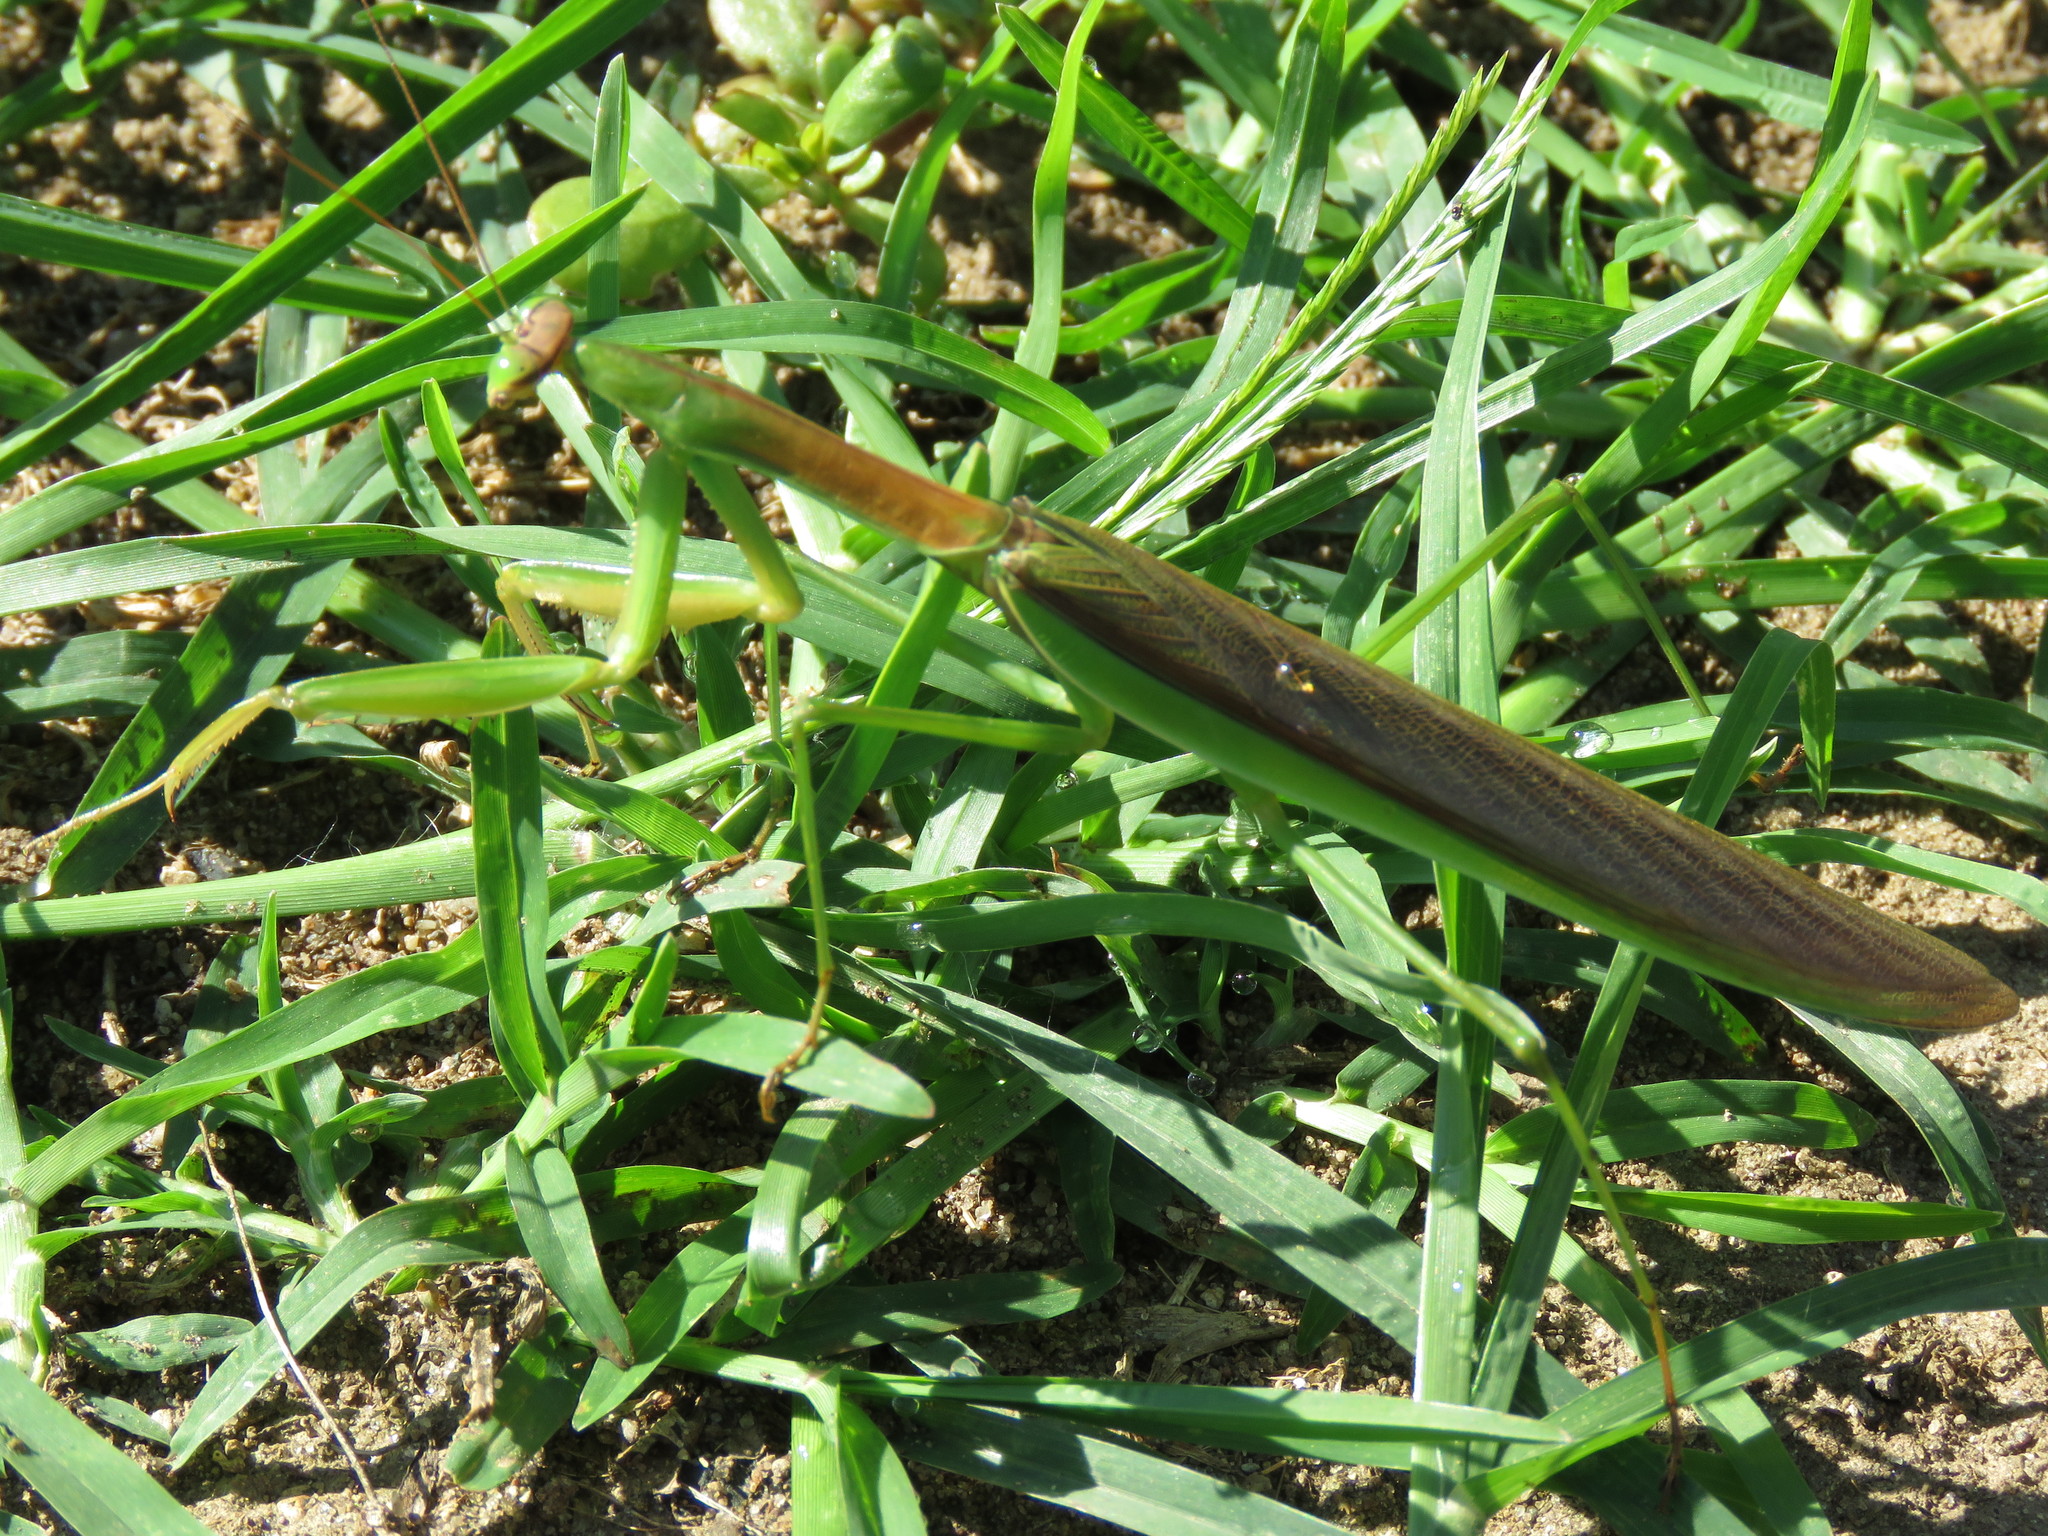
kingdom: Animalia
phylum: Arthropoda
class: Insecta
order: Mantodea
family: Mantidae
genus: Tenodera
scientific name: Tenodera sinensis
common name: Chinese mantis
